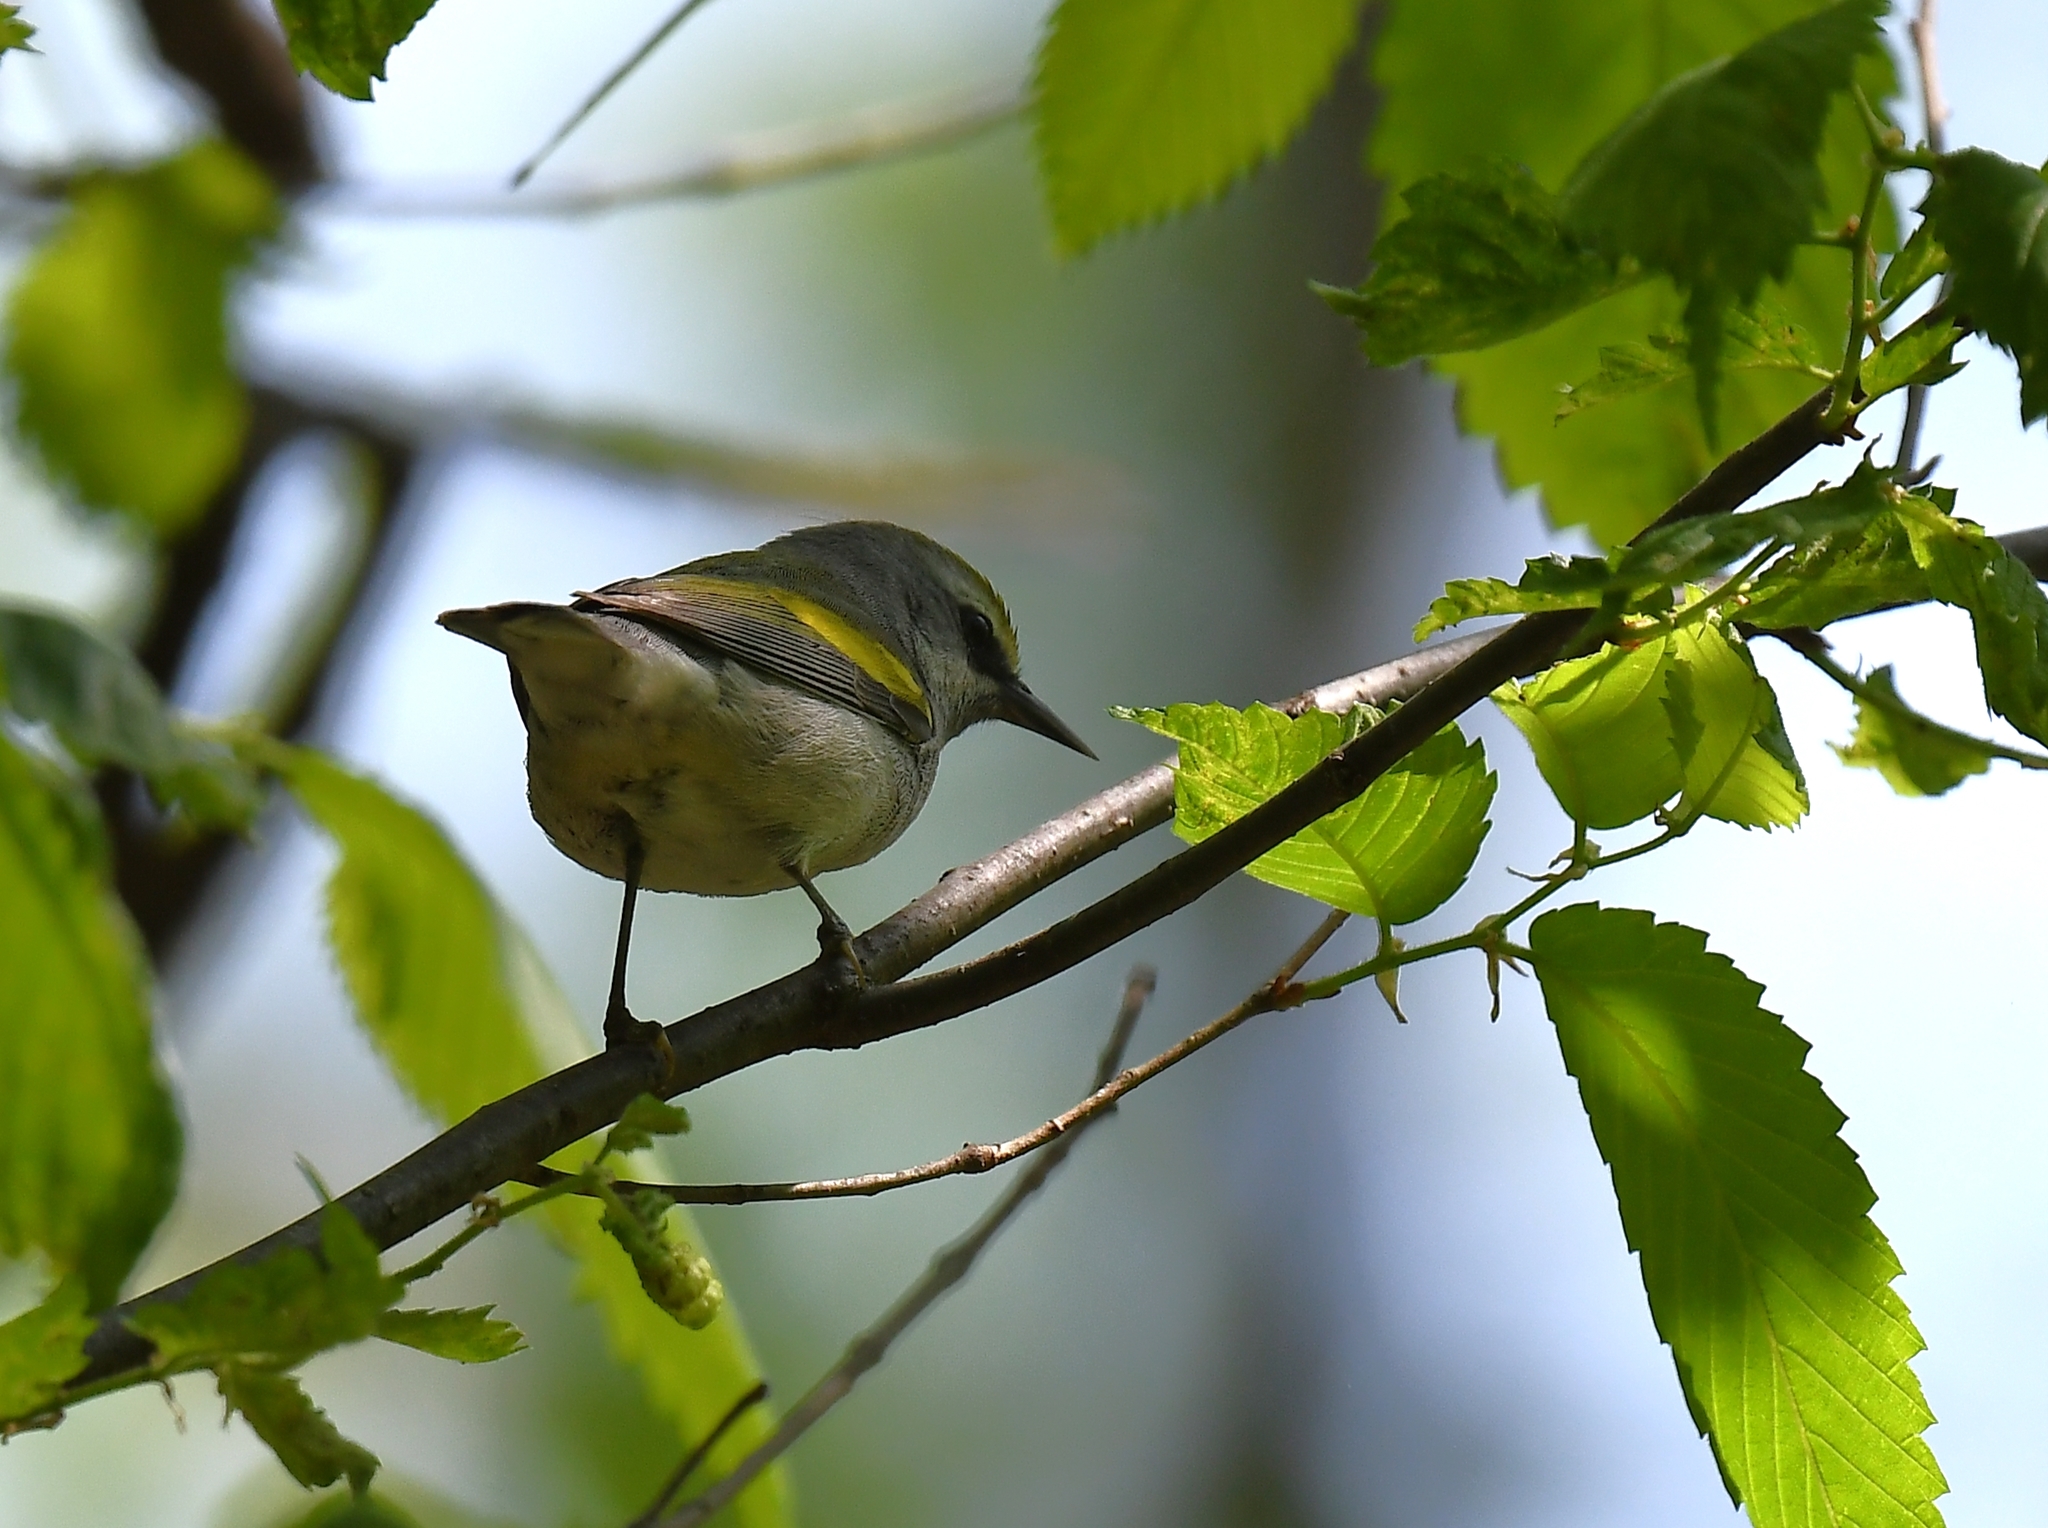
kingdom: Animalia
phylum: Chordata
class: Aves
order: Passeriformes
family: Parulidae
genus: Vermivora
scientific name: Vermivora chrysoptera
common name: Golden-winged warbler
